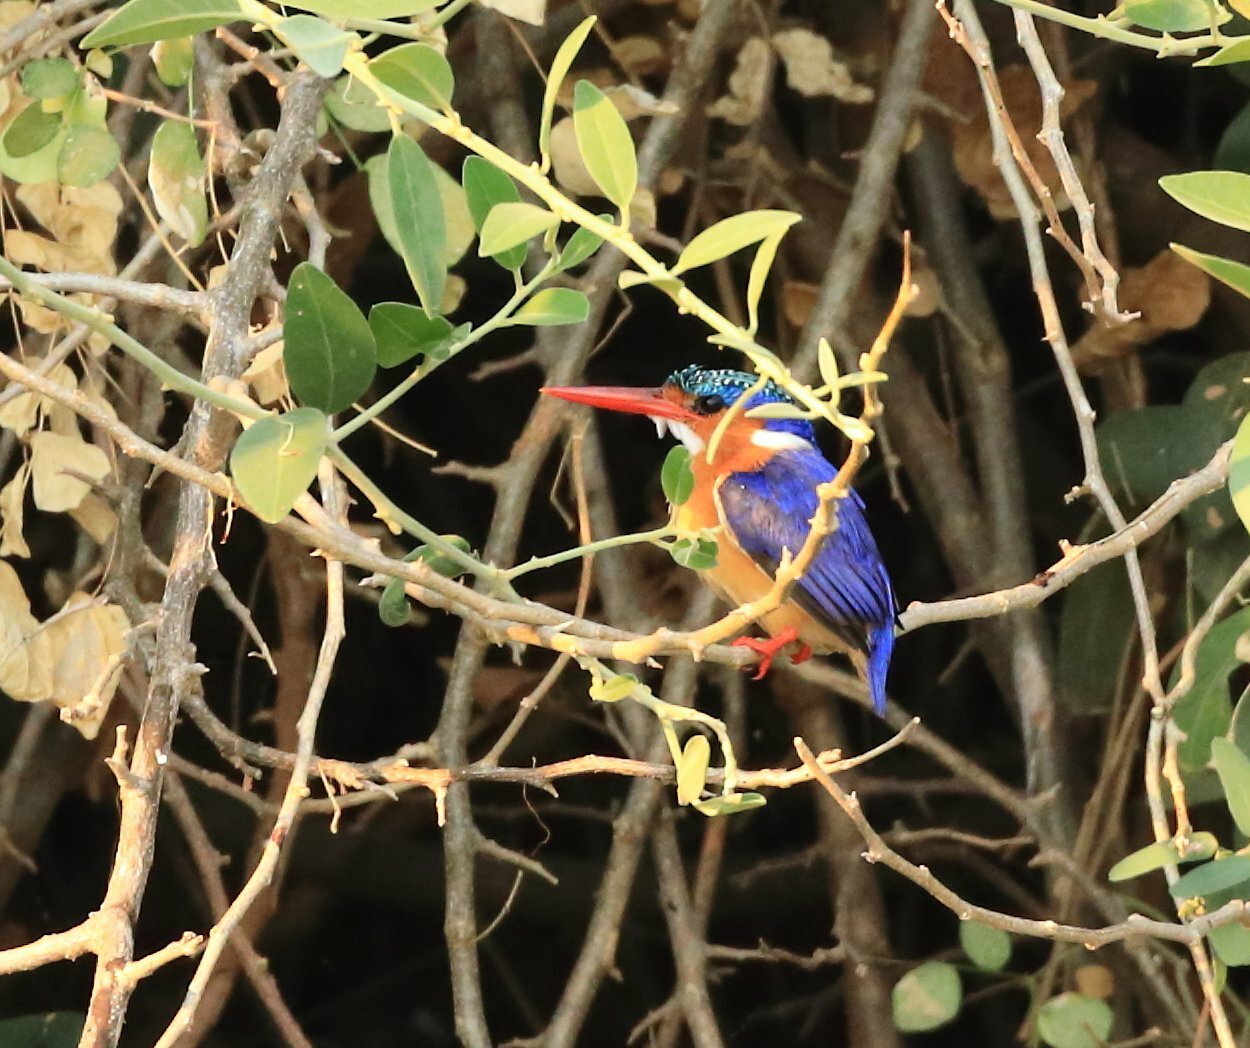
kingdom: Animalia
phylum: Chordata
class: Aves
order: Coraciiformes
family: Alcedinidae
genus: Corythornis
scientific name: Corythornis cristatus
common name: Malachite kingfisher
